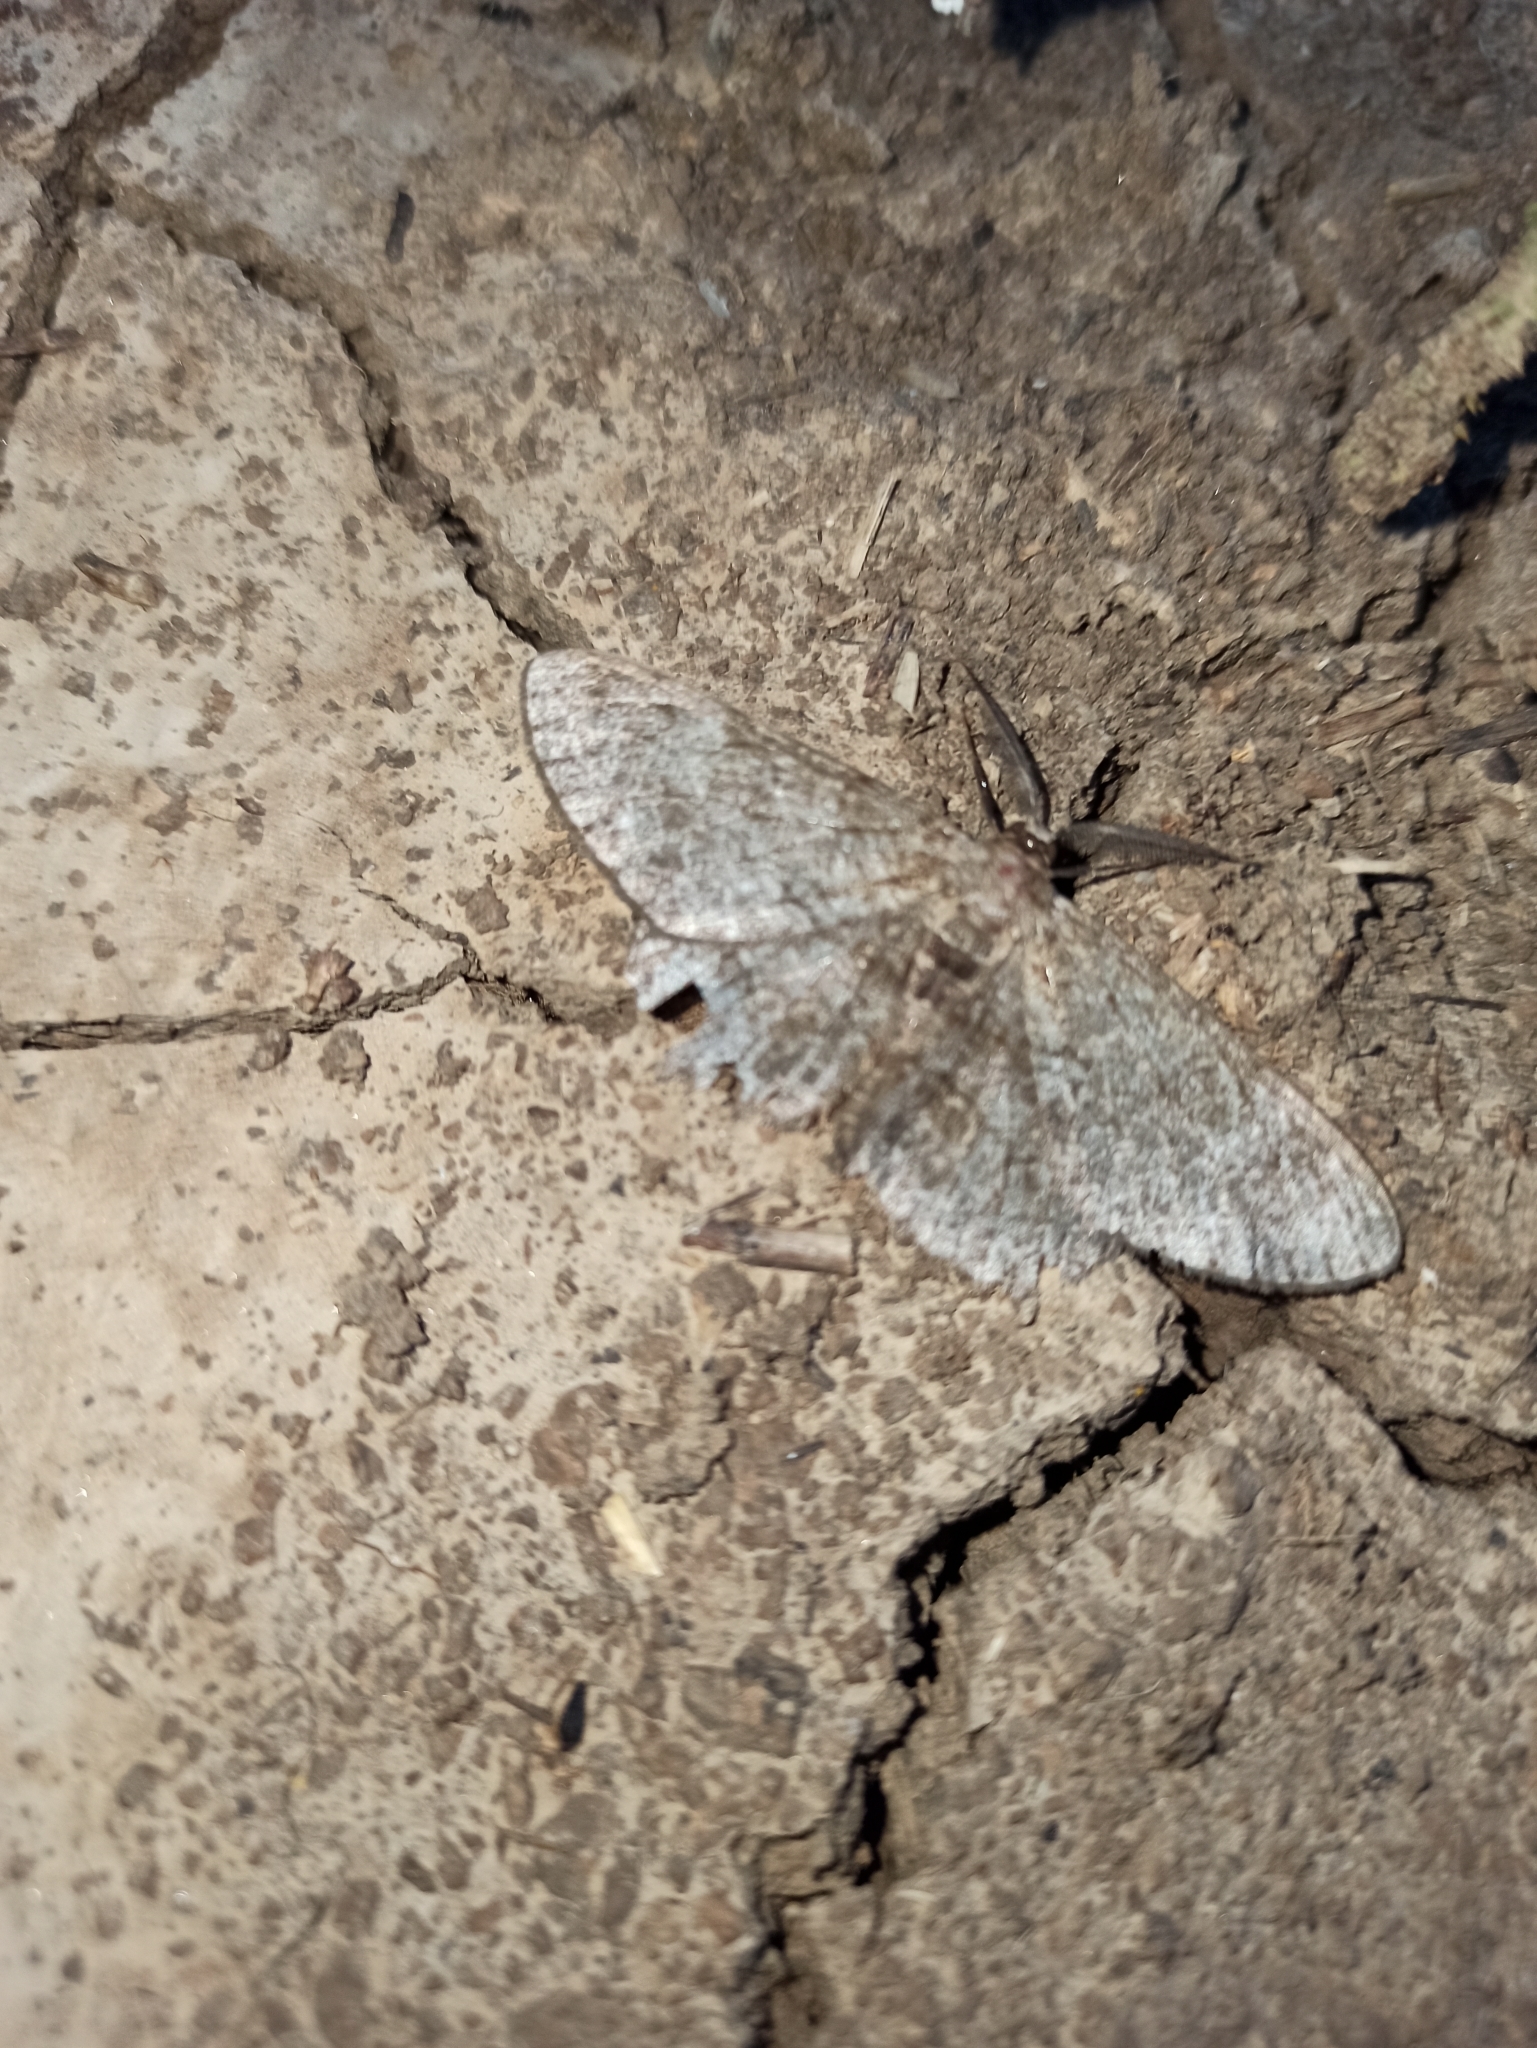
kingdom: Animalia
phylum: Arthropoda
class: Insecta
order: Lepidoptera
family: Geometridae
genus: Hypomecis
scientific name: Hypomecis punctinalis
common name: Pale oak beauty
